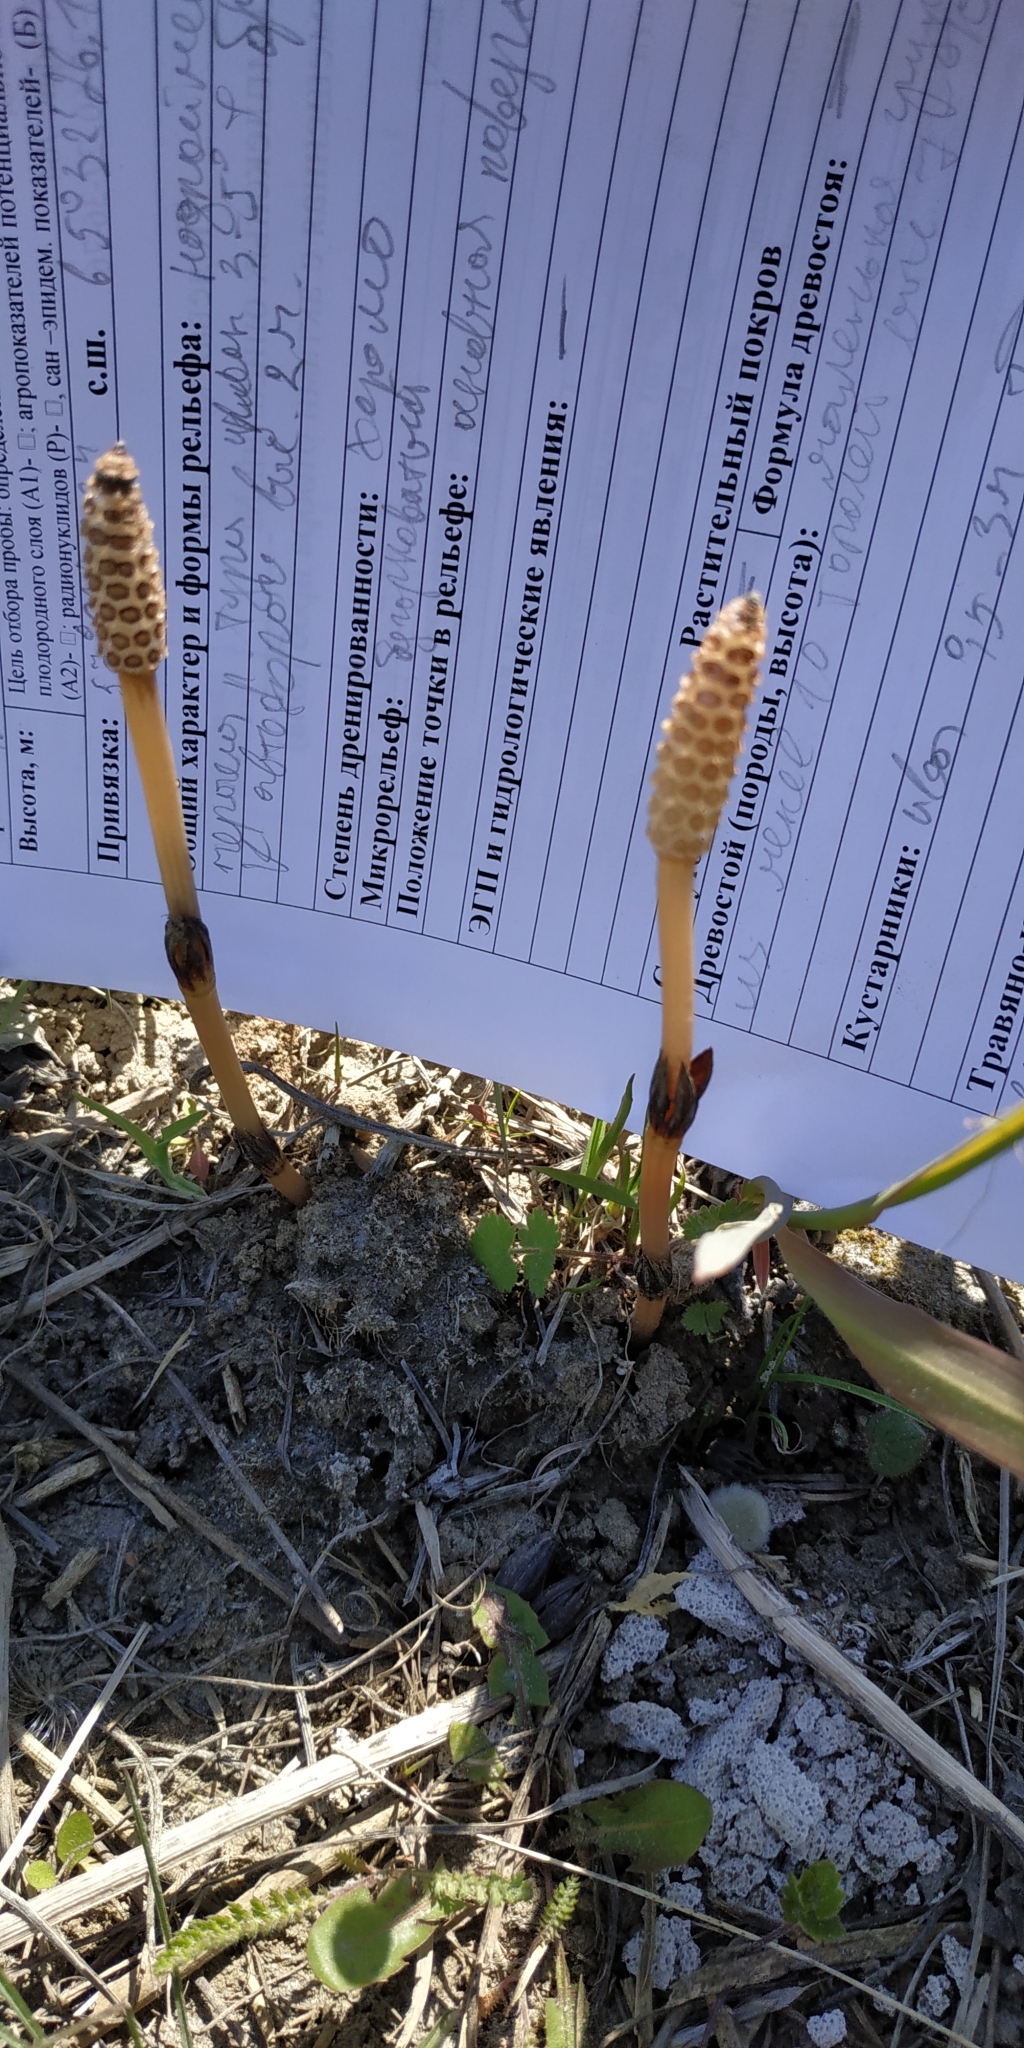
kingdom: Plantae
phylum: Tracheophyta
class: Polypodiopsida
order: Equisetales
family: Equisetaceae
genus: Equisetum
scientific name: Equisetum arvense
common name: Field horsetail
